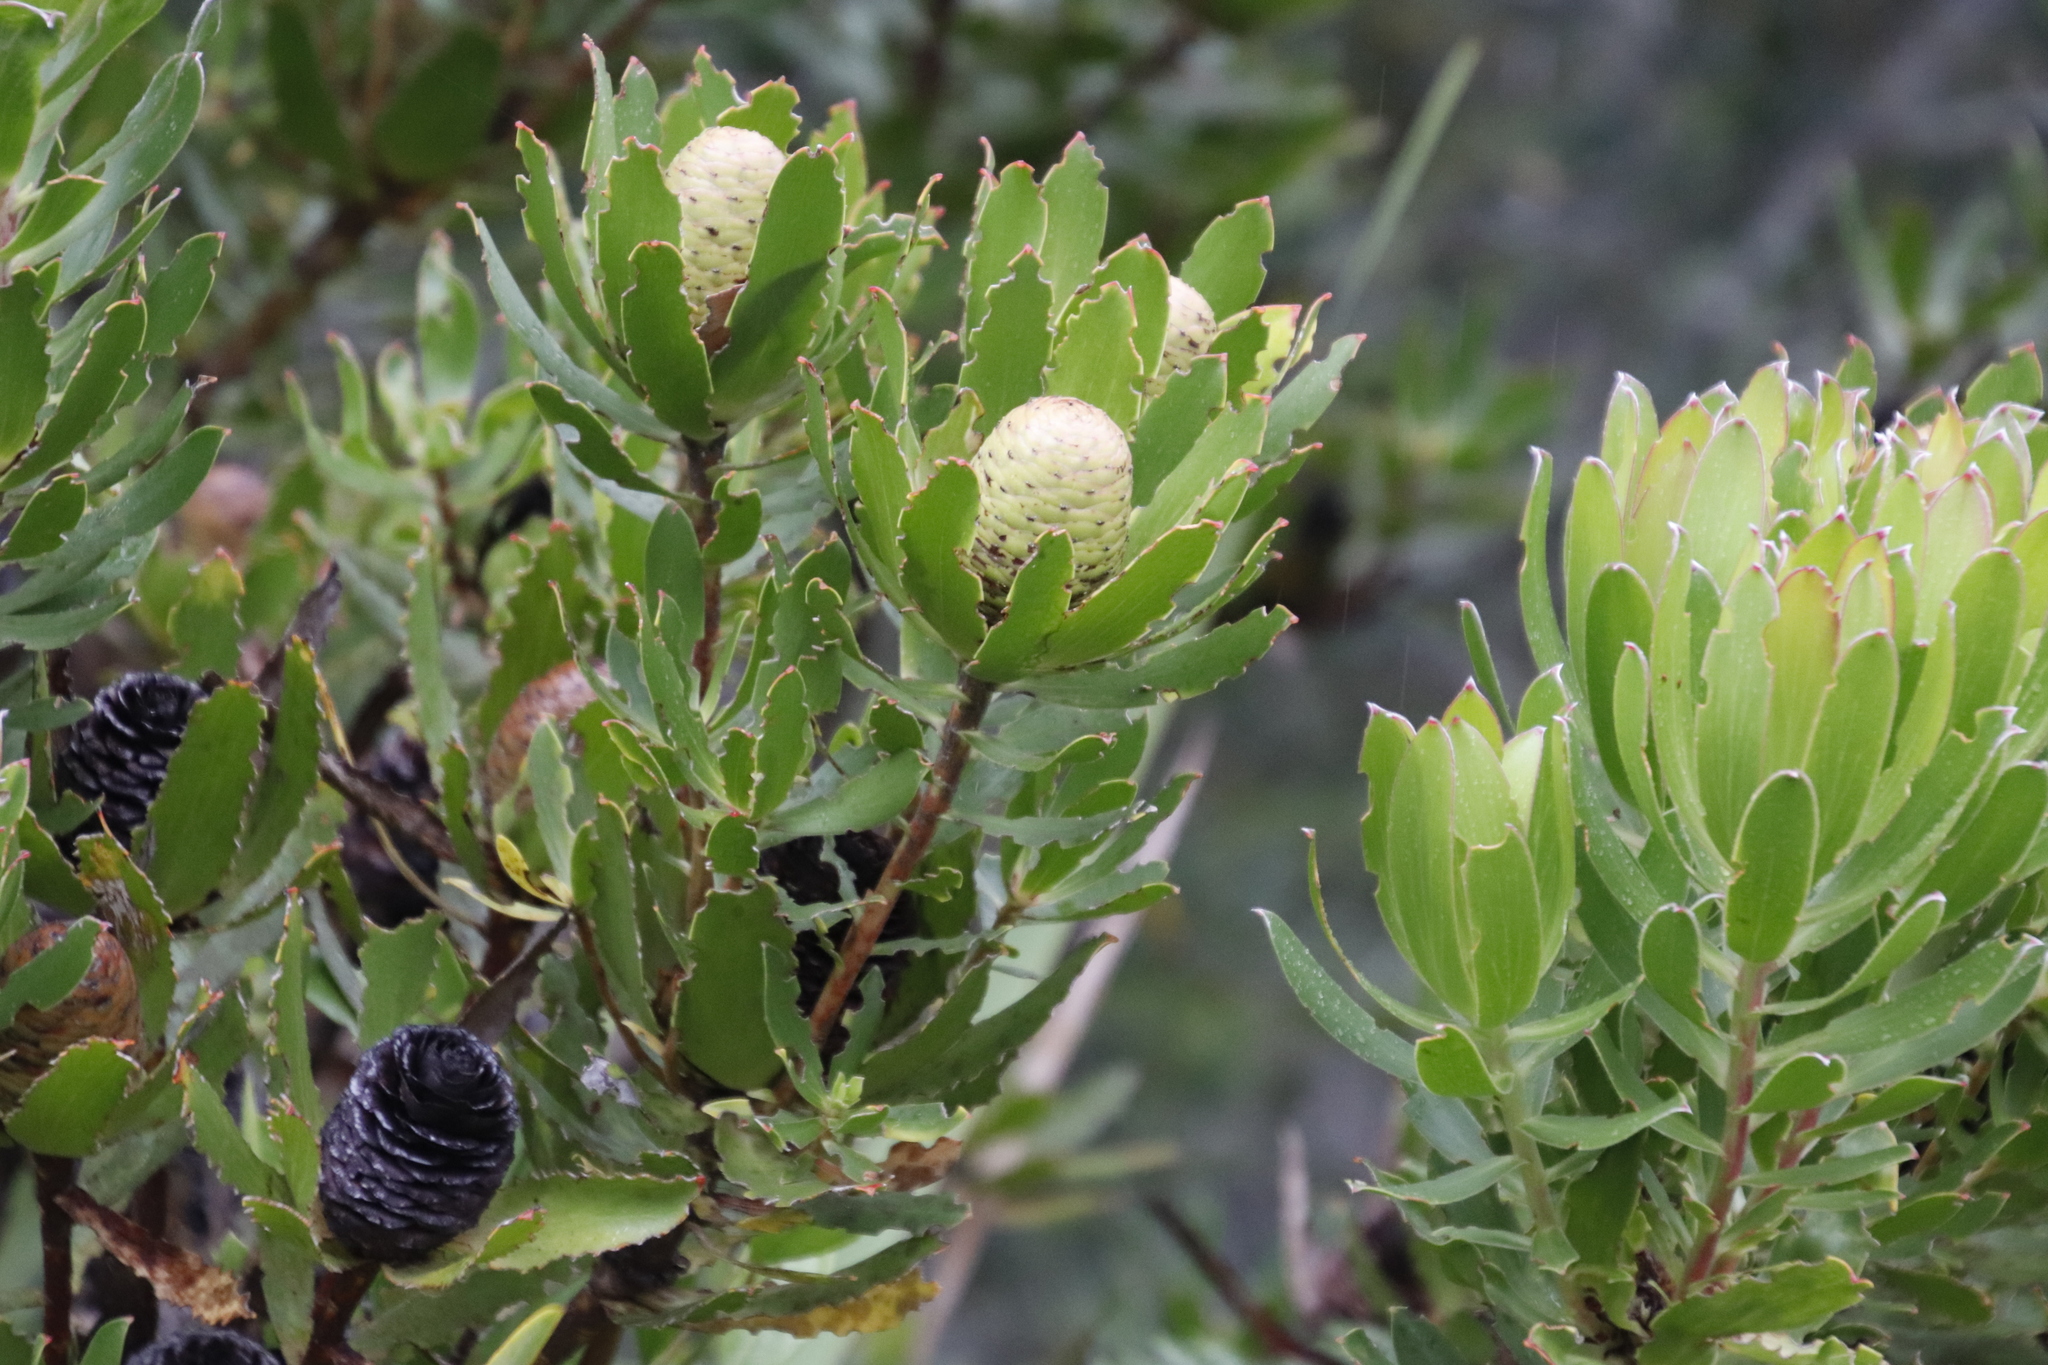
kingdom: Plantae
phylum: Tracheophyta
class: Magnoliopsida
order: Proteales
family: Proteaceae
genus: Leucadendron
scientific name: Leucadendron spissifolium
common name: Spear-leaf conebush
